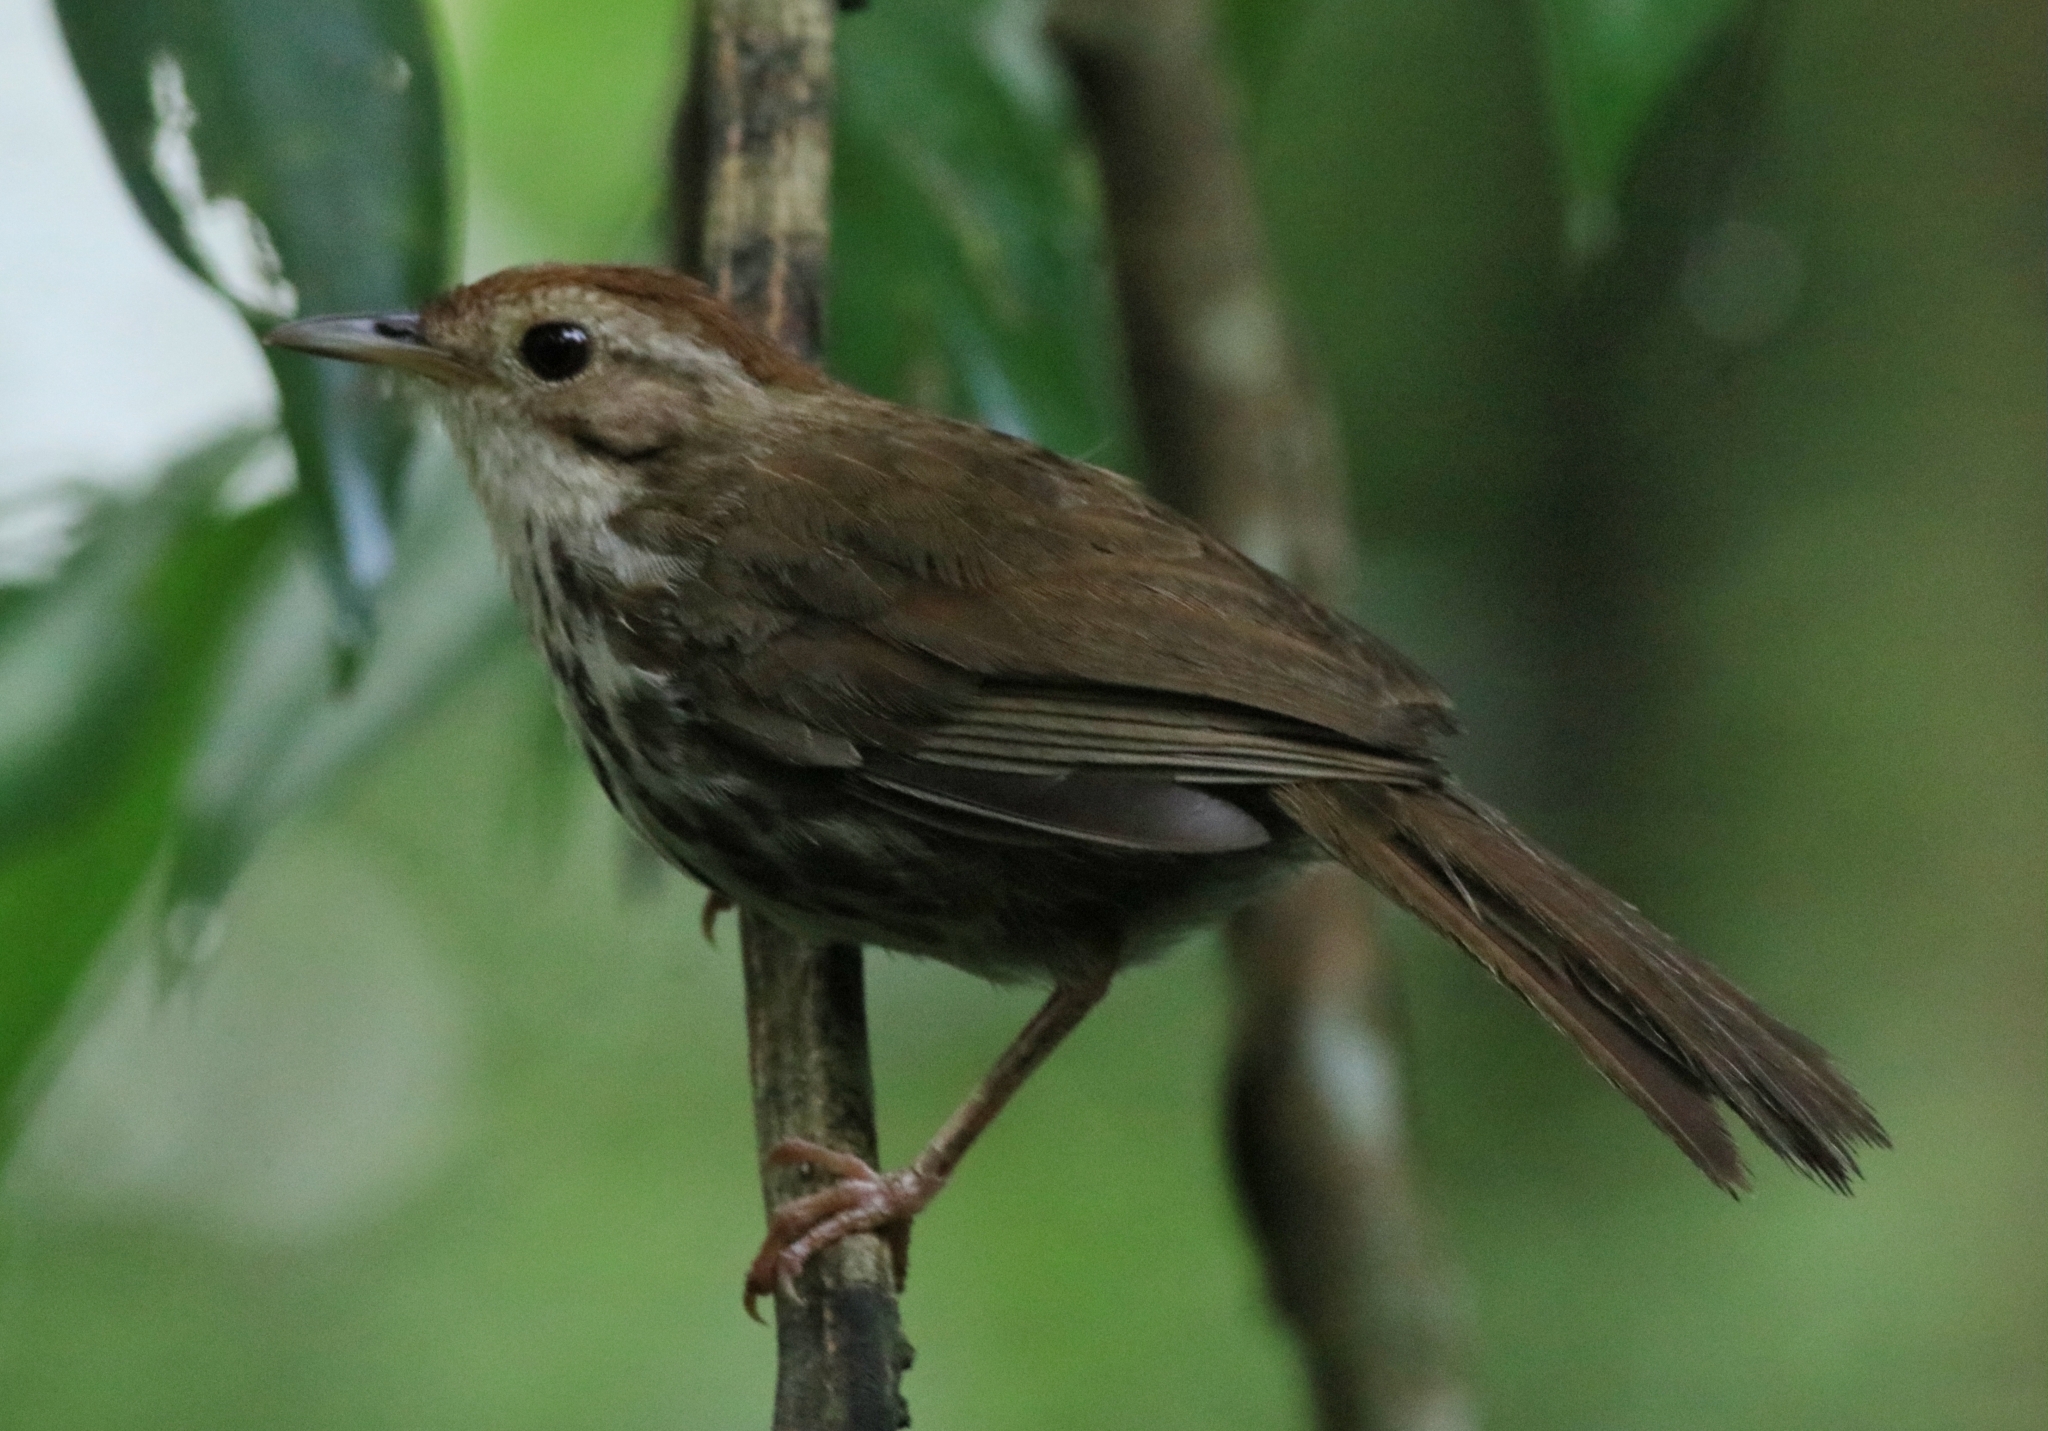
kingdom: Animalia
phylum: Chordata
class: Aves
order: Passeriformes
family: Pellorneidae
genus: Pellorneum
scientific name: Pellorneum ruficeps
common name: Puff-throated babbler
